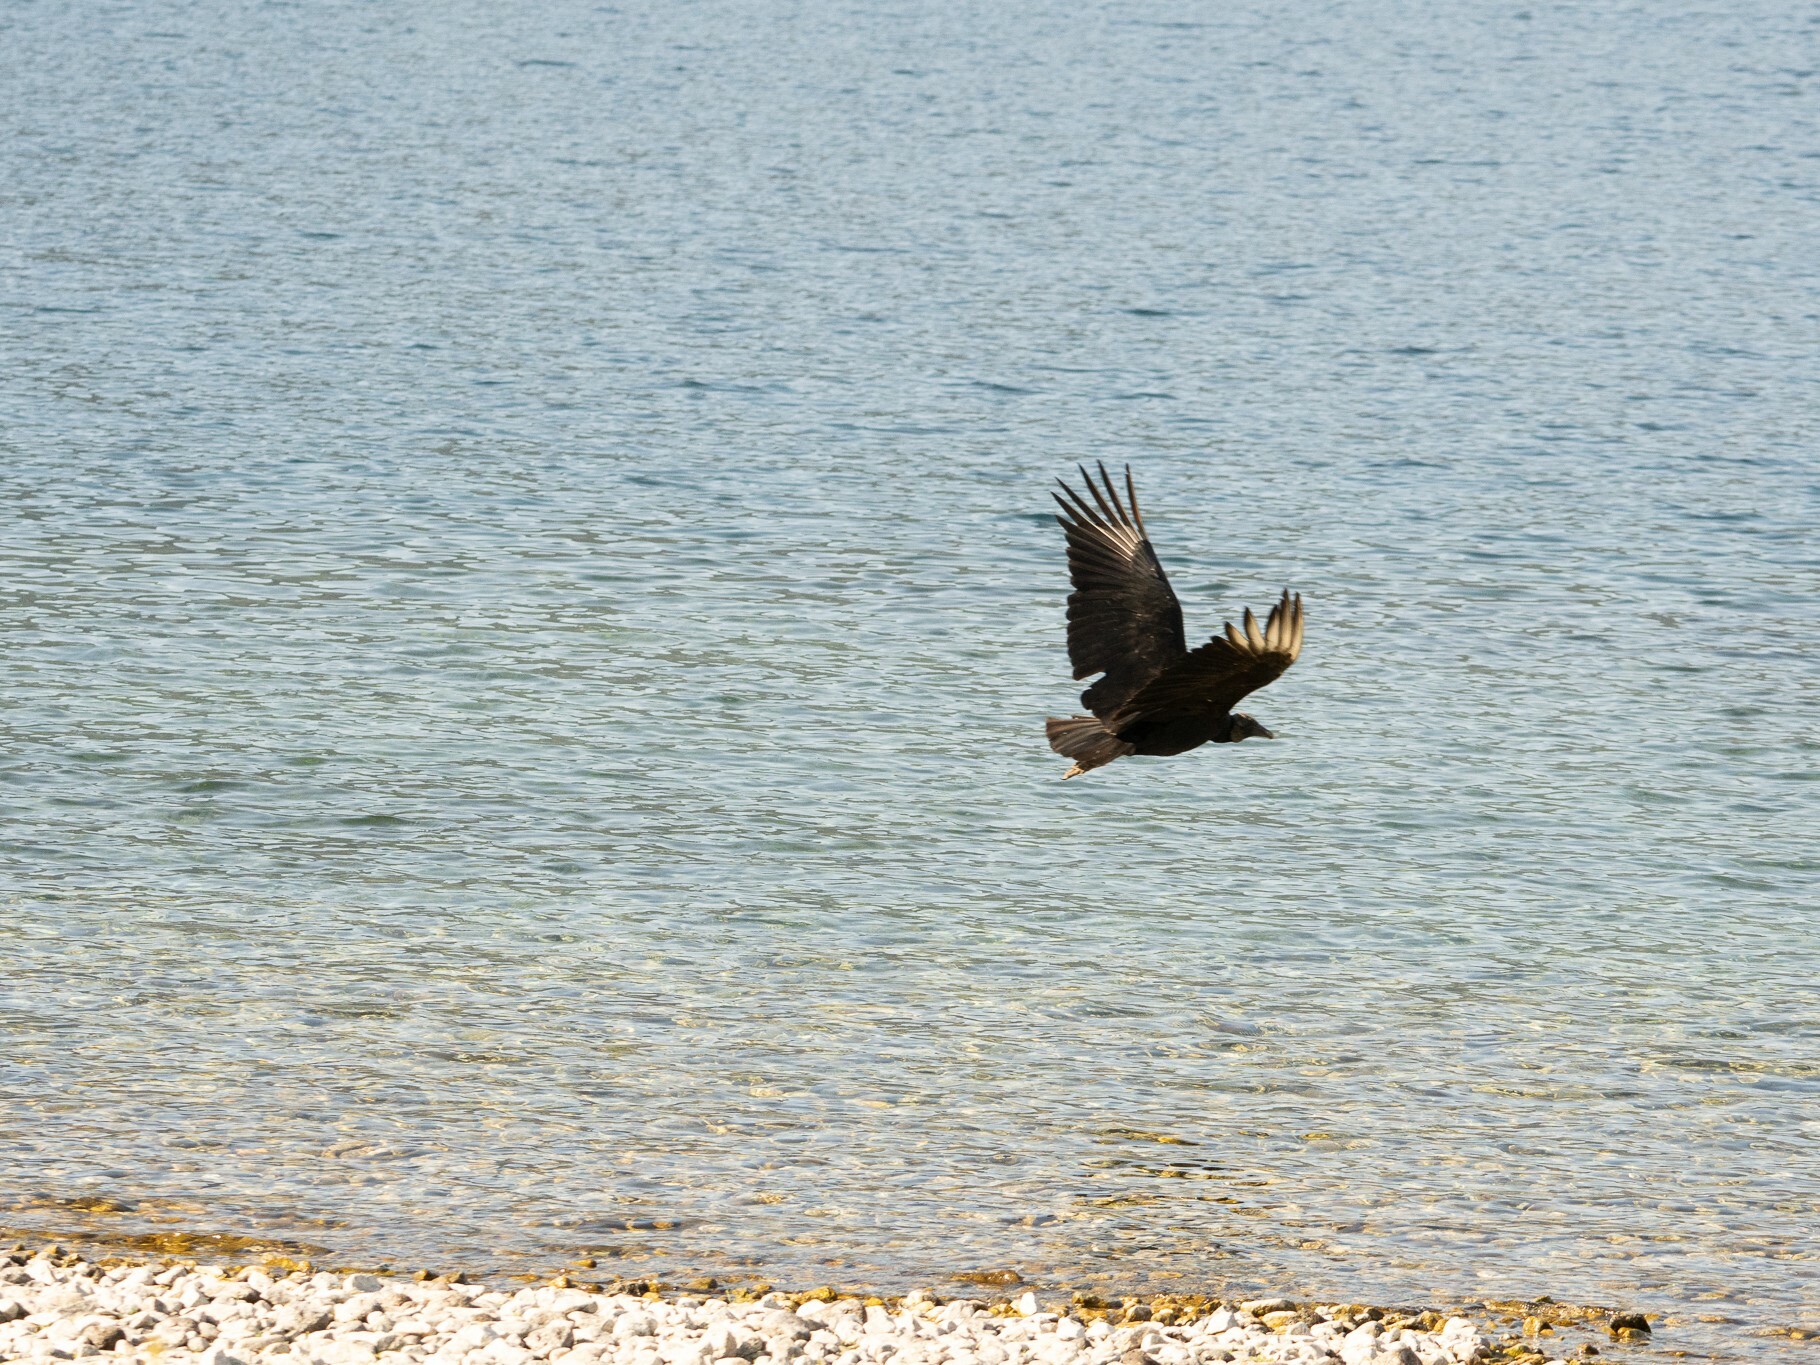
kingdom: Animalia
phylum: Chordata
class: Aves
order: Accipitriformes
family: Cathartidae
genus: Coragyps
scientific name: Coragyps atratus
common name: Black vulture
